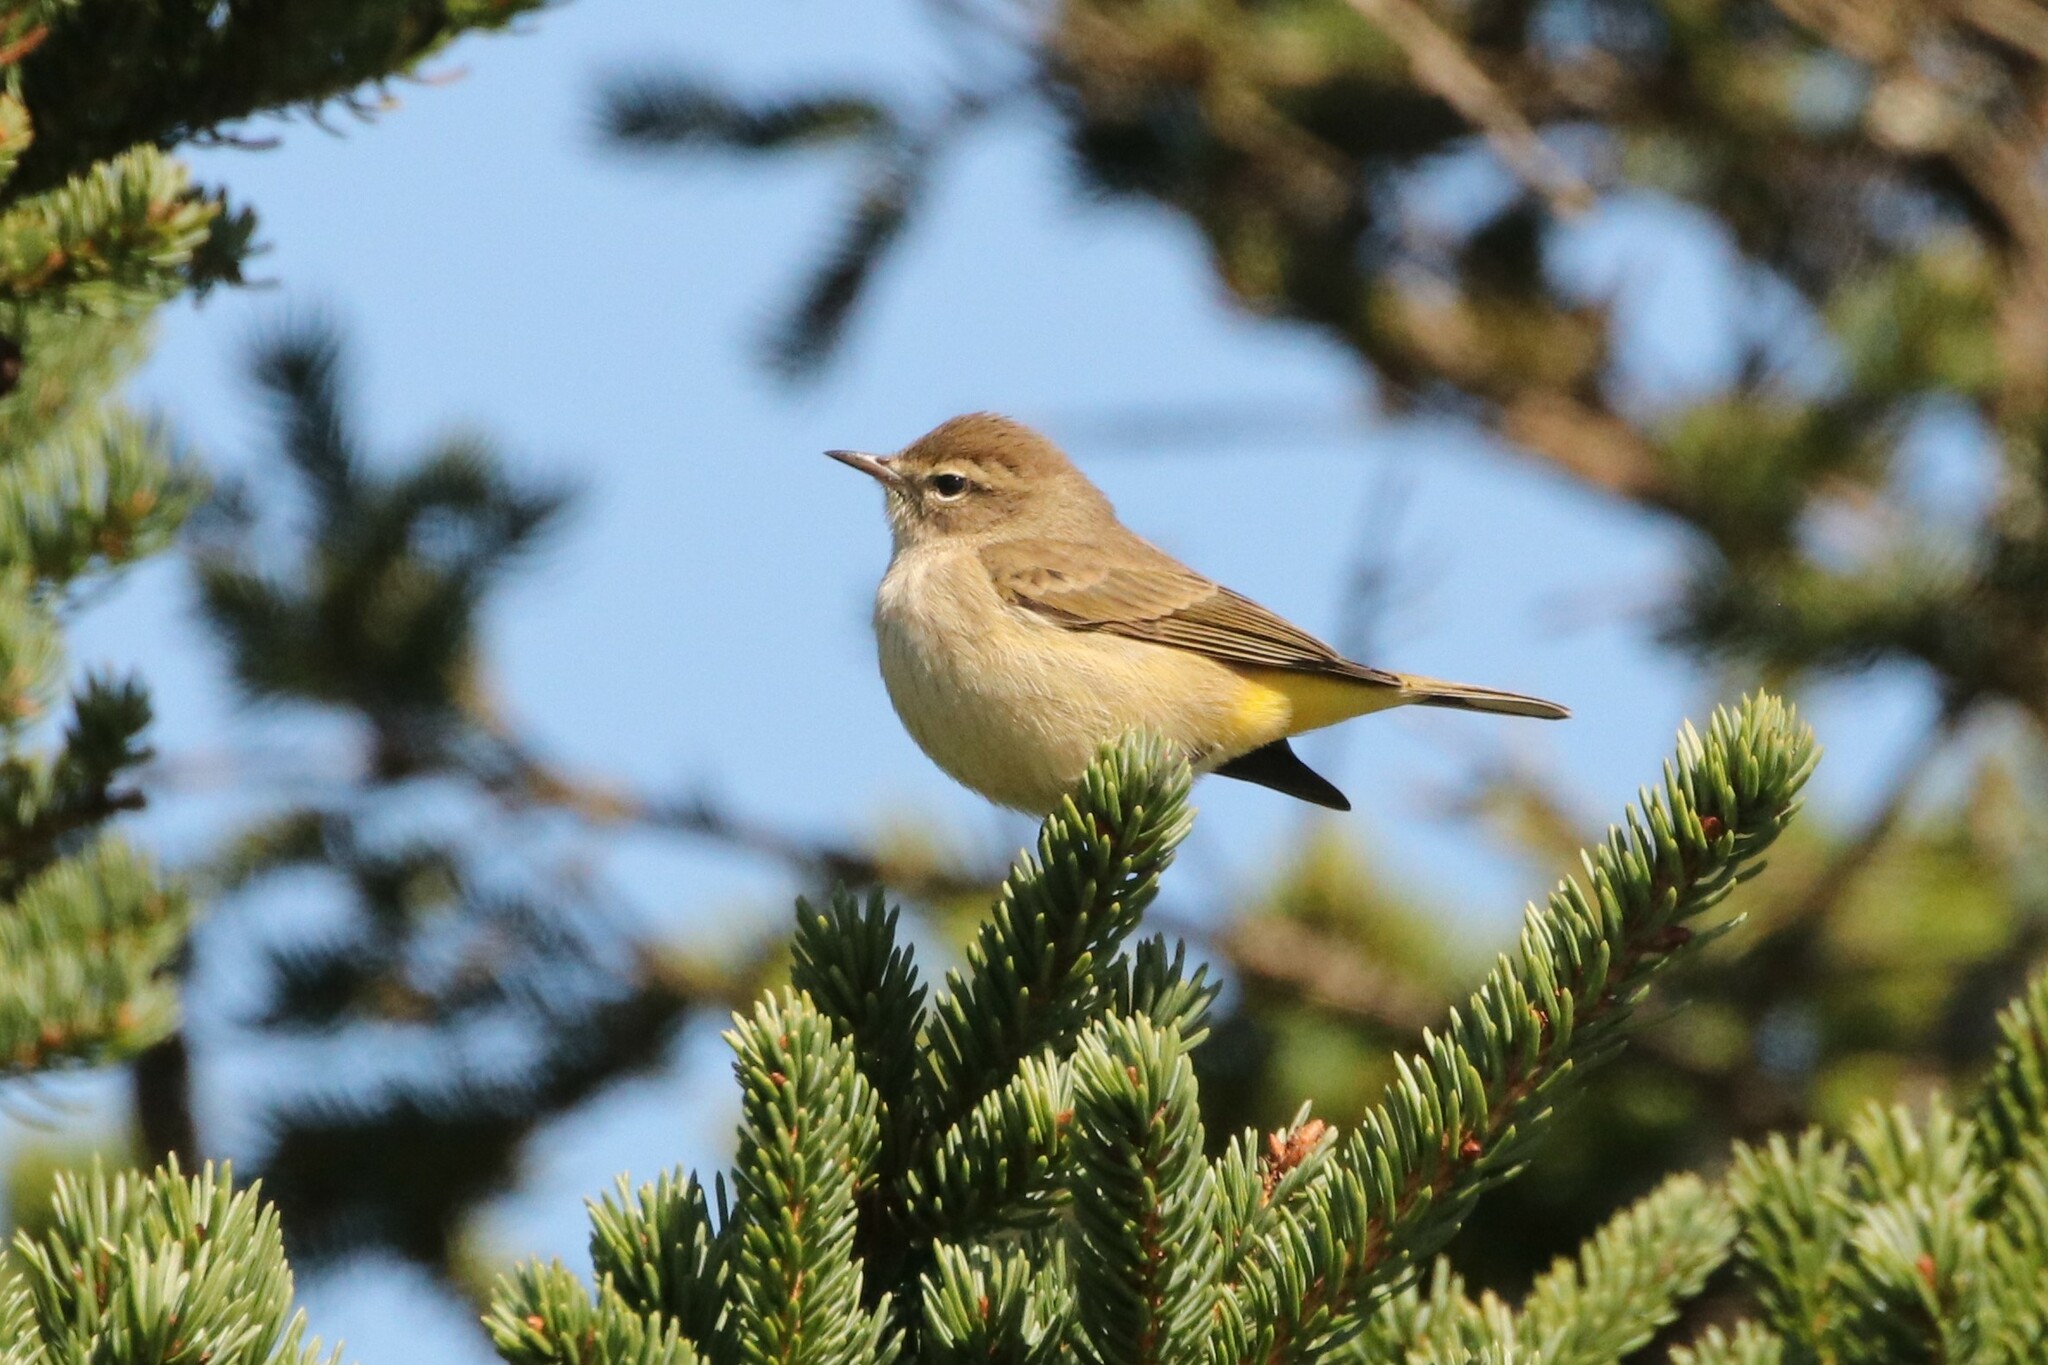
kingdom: Animalia
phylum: Chordata
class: Aves
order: Passeriformes
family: Parulidae
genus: Setophaga
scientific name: Setophaga palmarum
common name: Palm warbler
